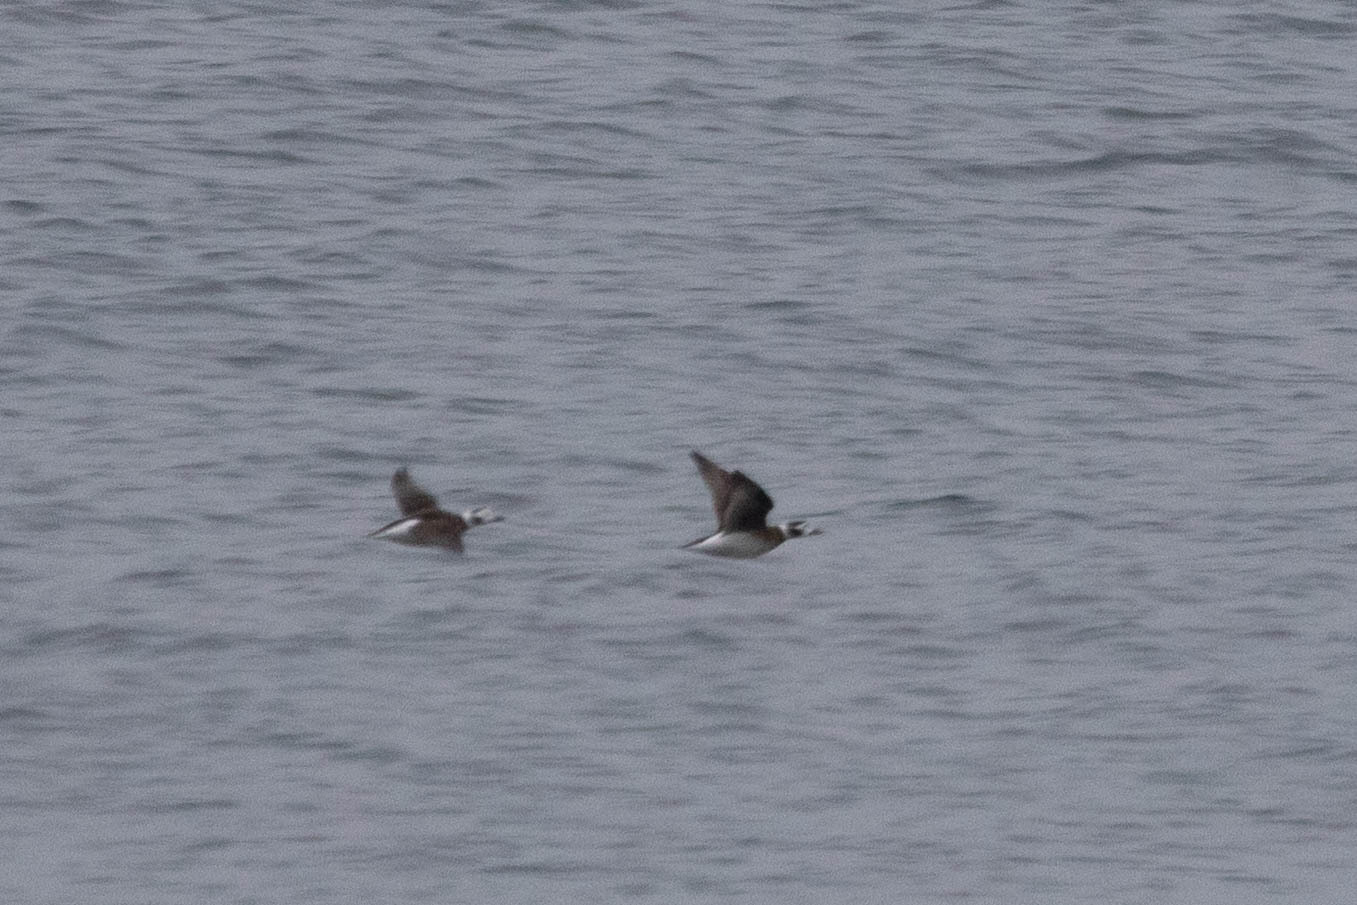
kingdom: Animalia
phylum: Chordata
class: Aves
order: Anseriformes
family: Anatidae
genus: Clangula
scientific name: Clangula hyemalis
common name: Long-tailed duck
